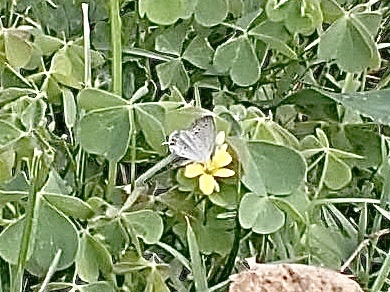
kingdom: Animalia
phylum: Arthropoda
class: Insecta
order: Lepidoptera
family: Lycaenidae
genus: Elkalyce
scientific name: Elkalyce comyntas
